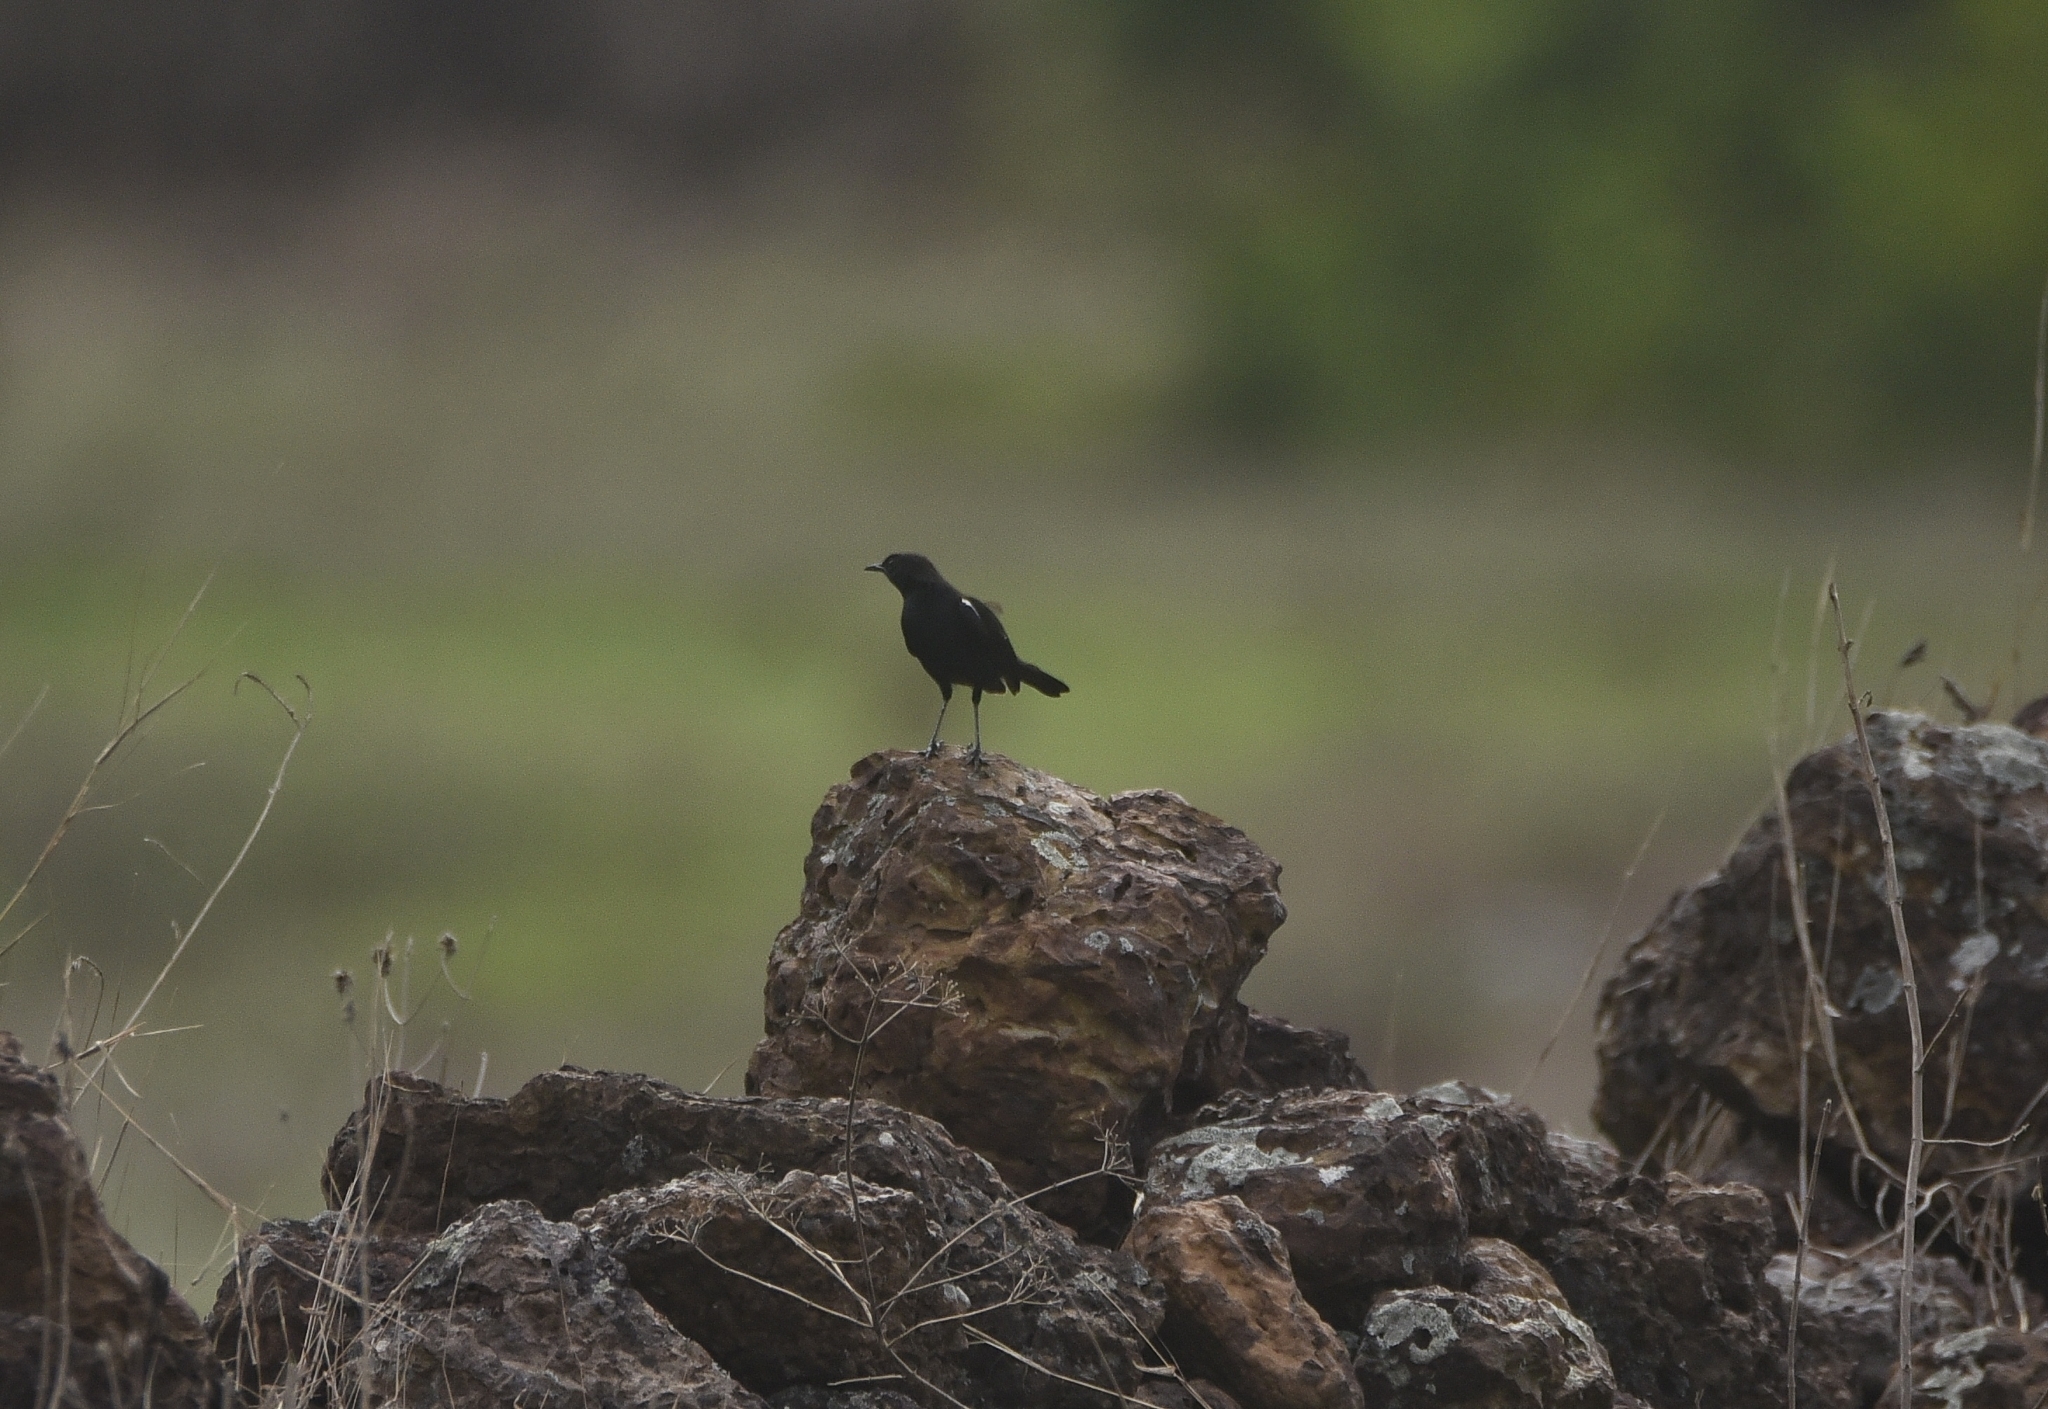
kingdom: Animalia
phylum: Chordata
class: Aves
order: Passeriformes
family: Muscicapidae
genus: Saxicoloides
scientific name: Saxicoloides fulicatus
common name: Indian robin
